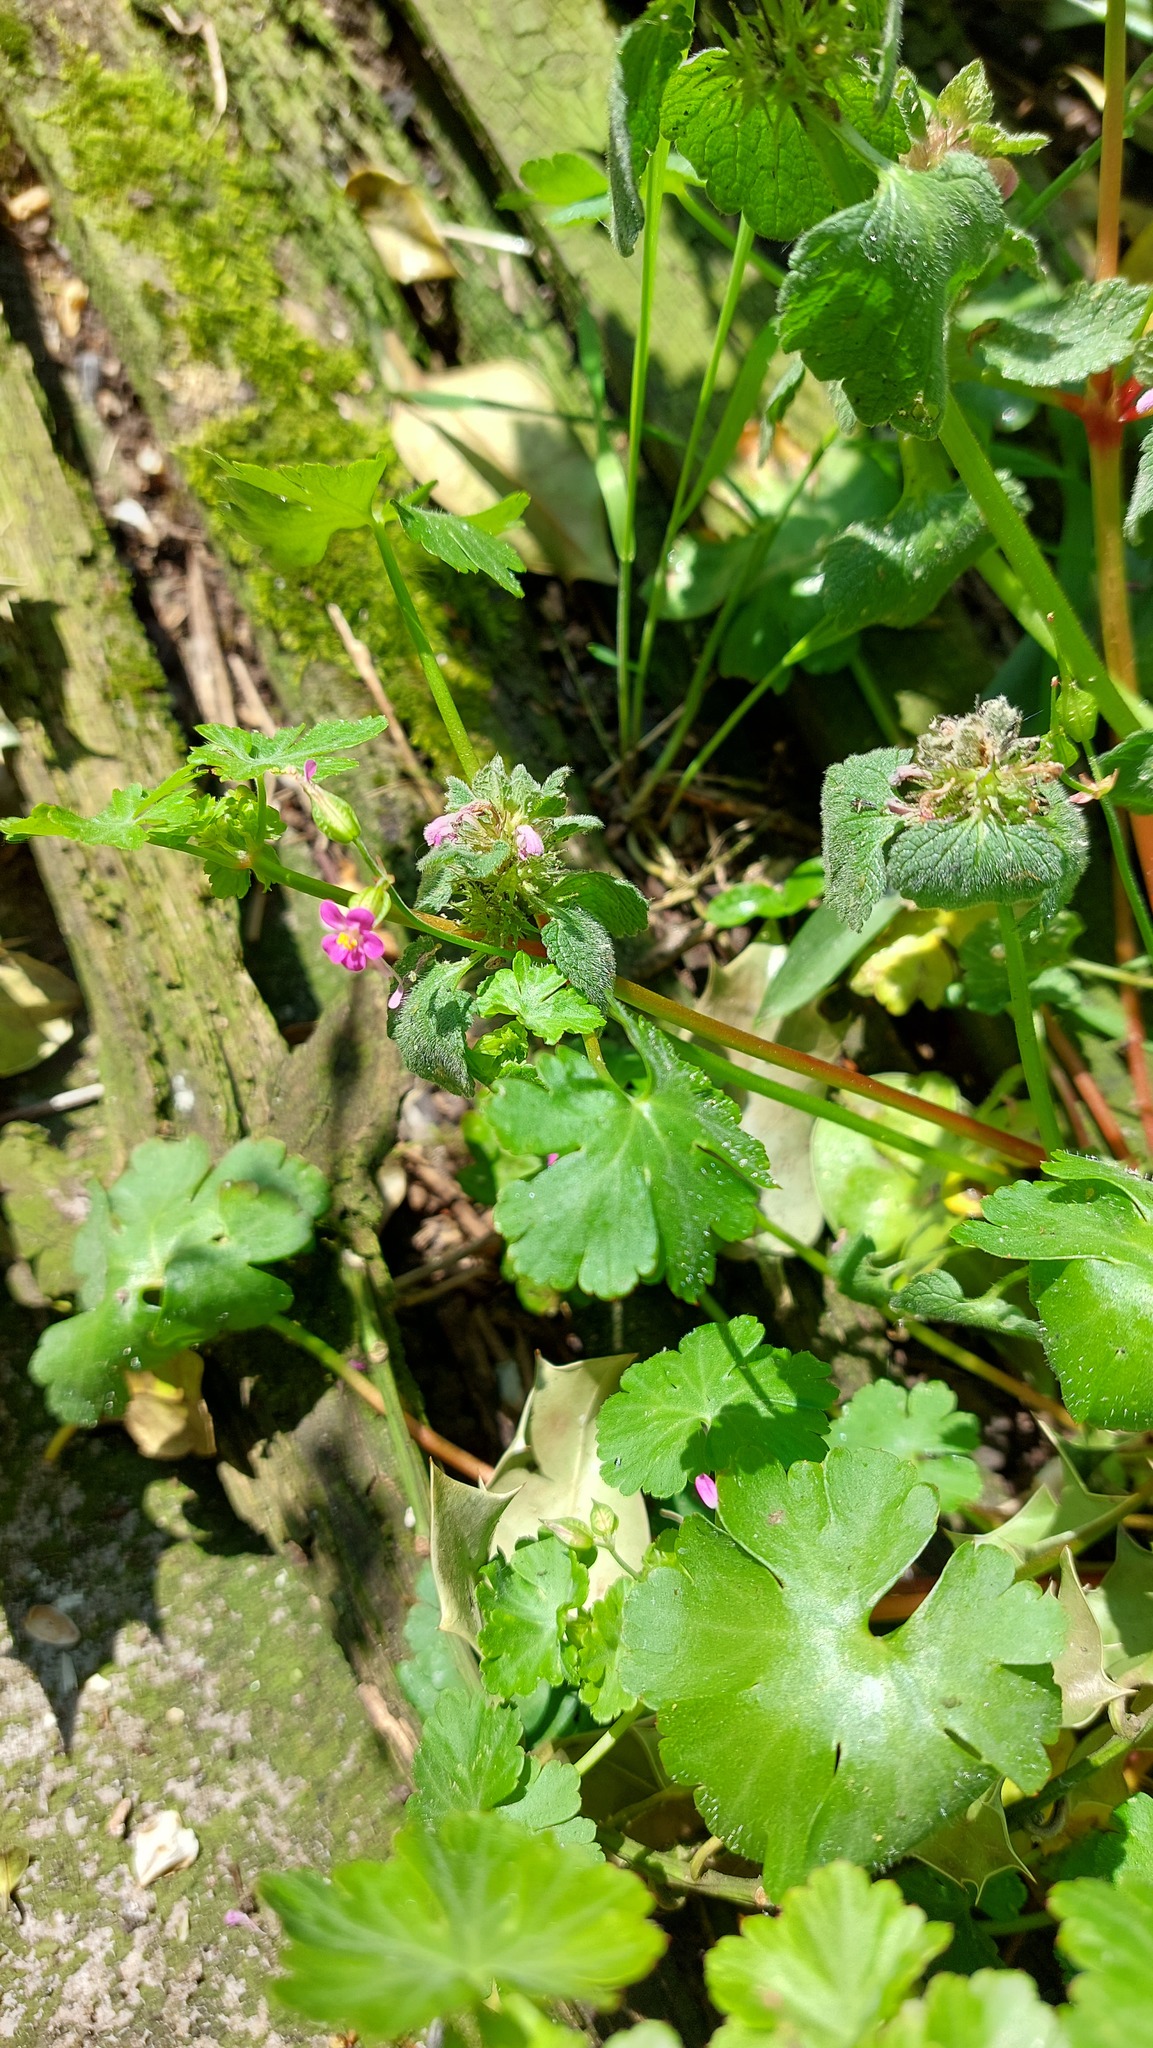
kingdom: Plantae
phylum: Tracheophyta
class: Magnoliopsida
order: Lamiales
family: Lamiaceae
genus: Lamium
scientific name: Lamium purpureum
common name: Red dead-nettle
